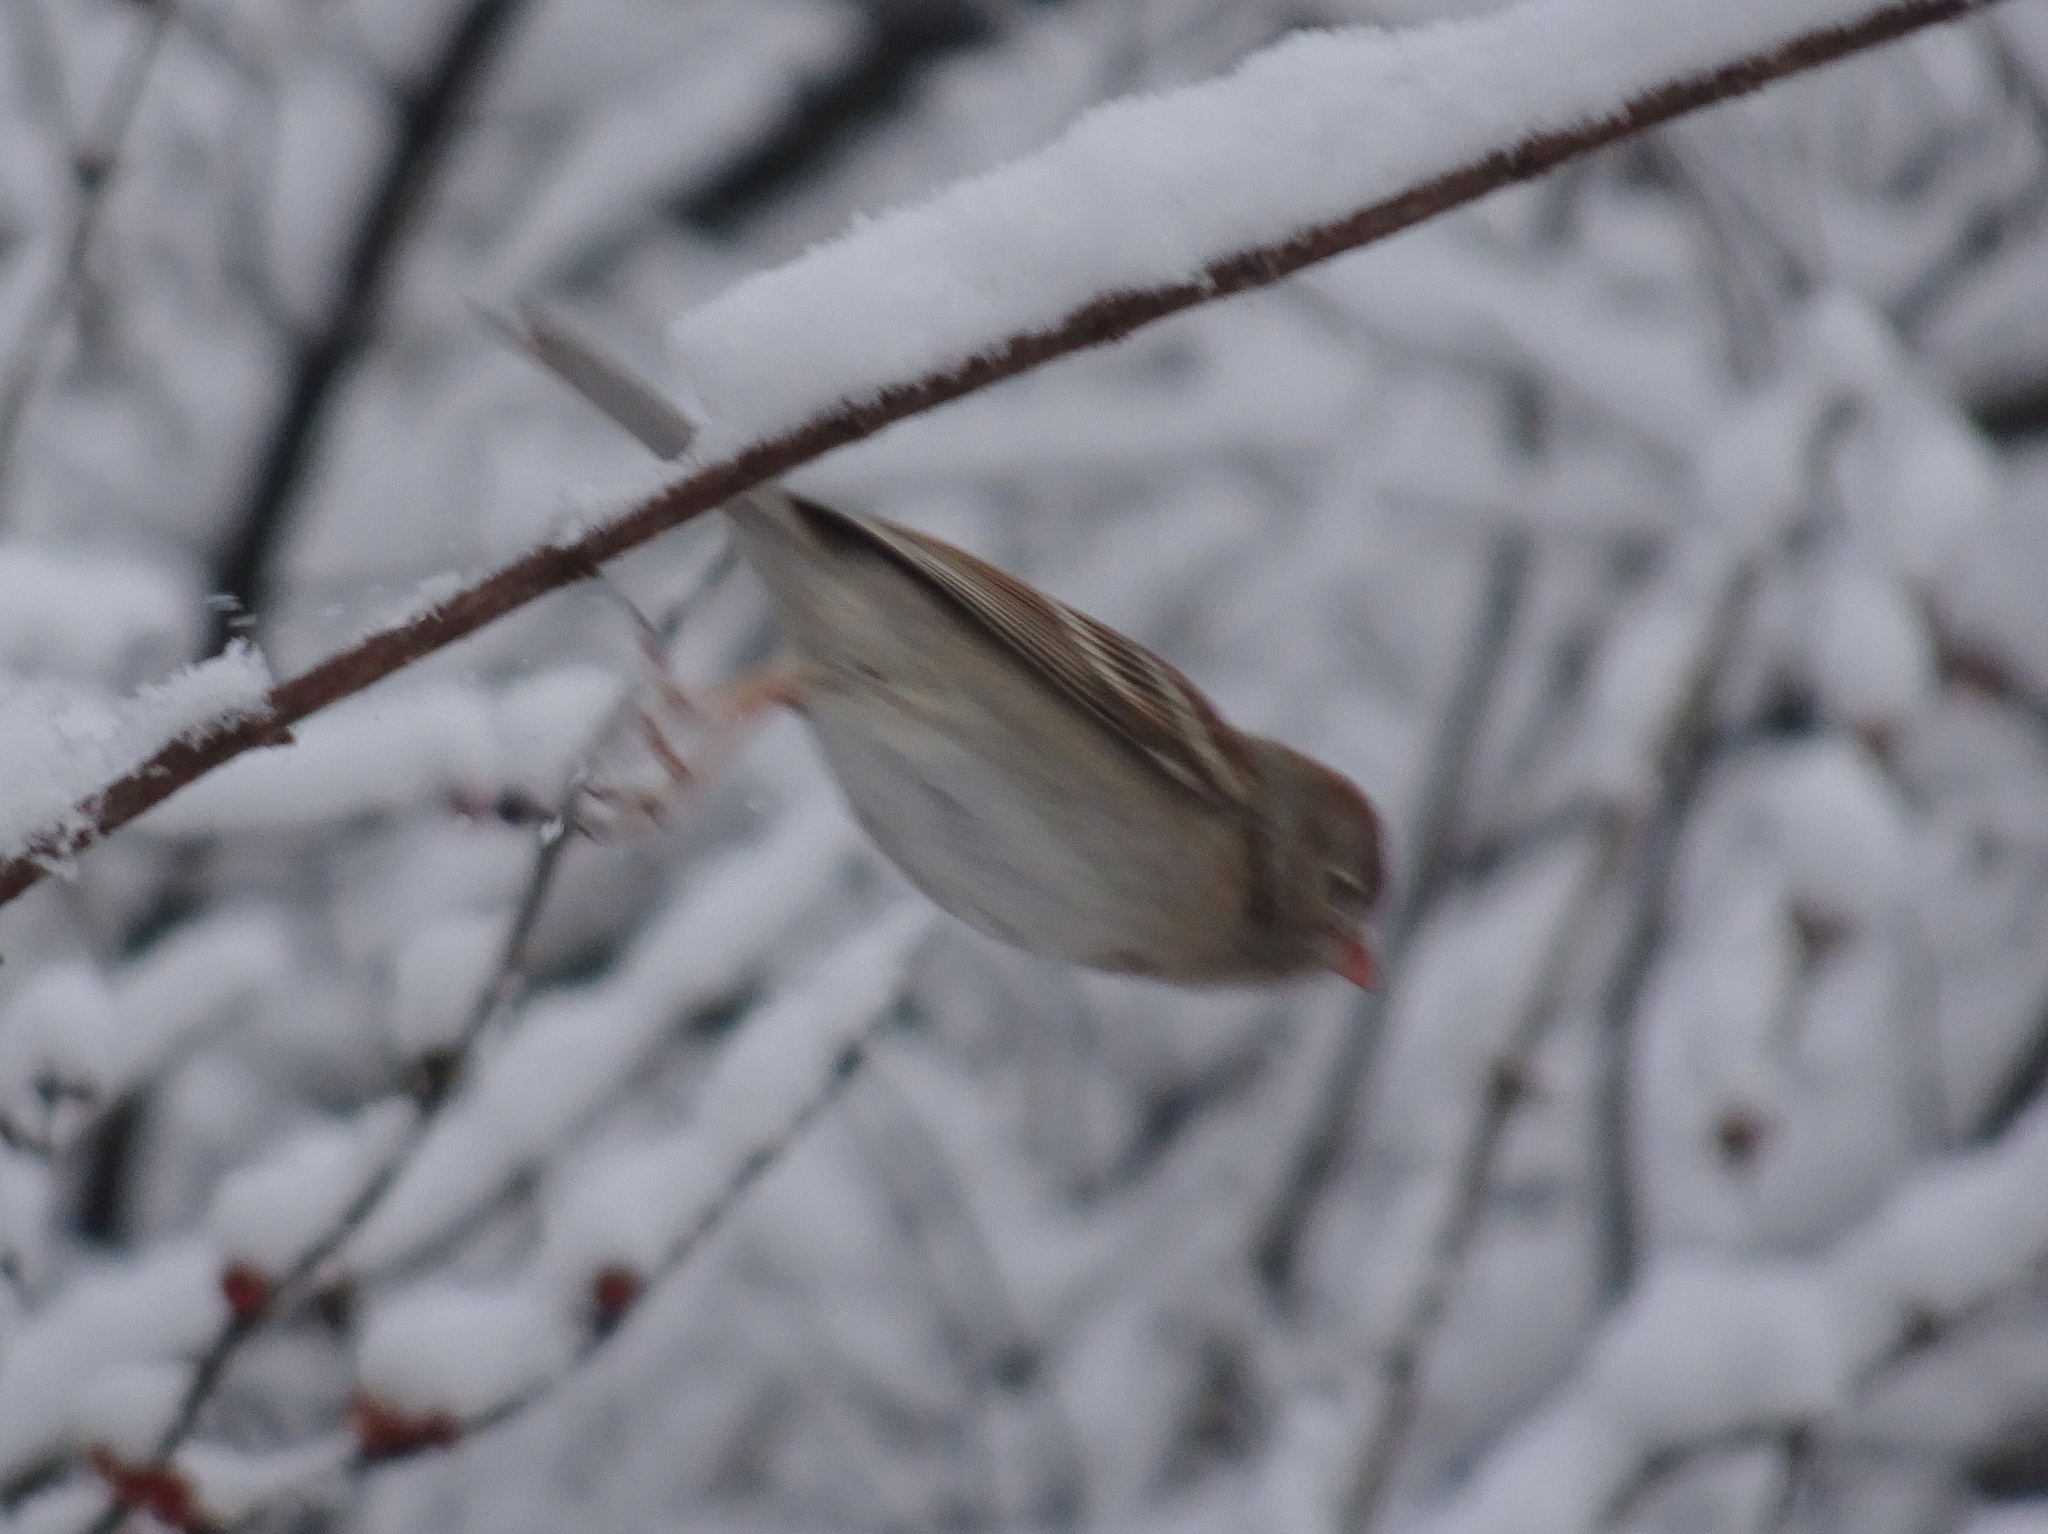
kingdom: Animalia
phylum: Chordata
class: Aves
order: Passeriformes
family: Passerellidae
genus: Spizella
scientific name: Spizella pusilla
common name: Field sparrow
